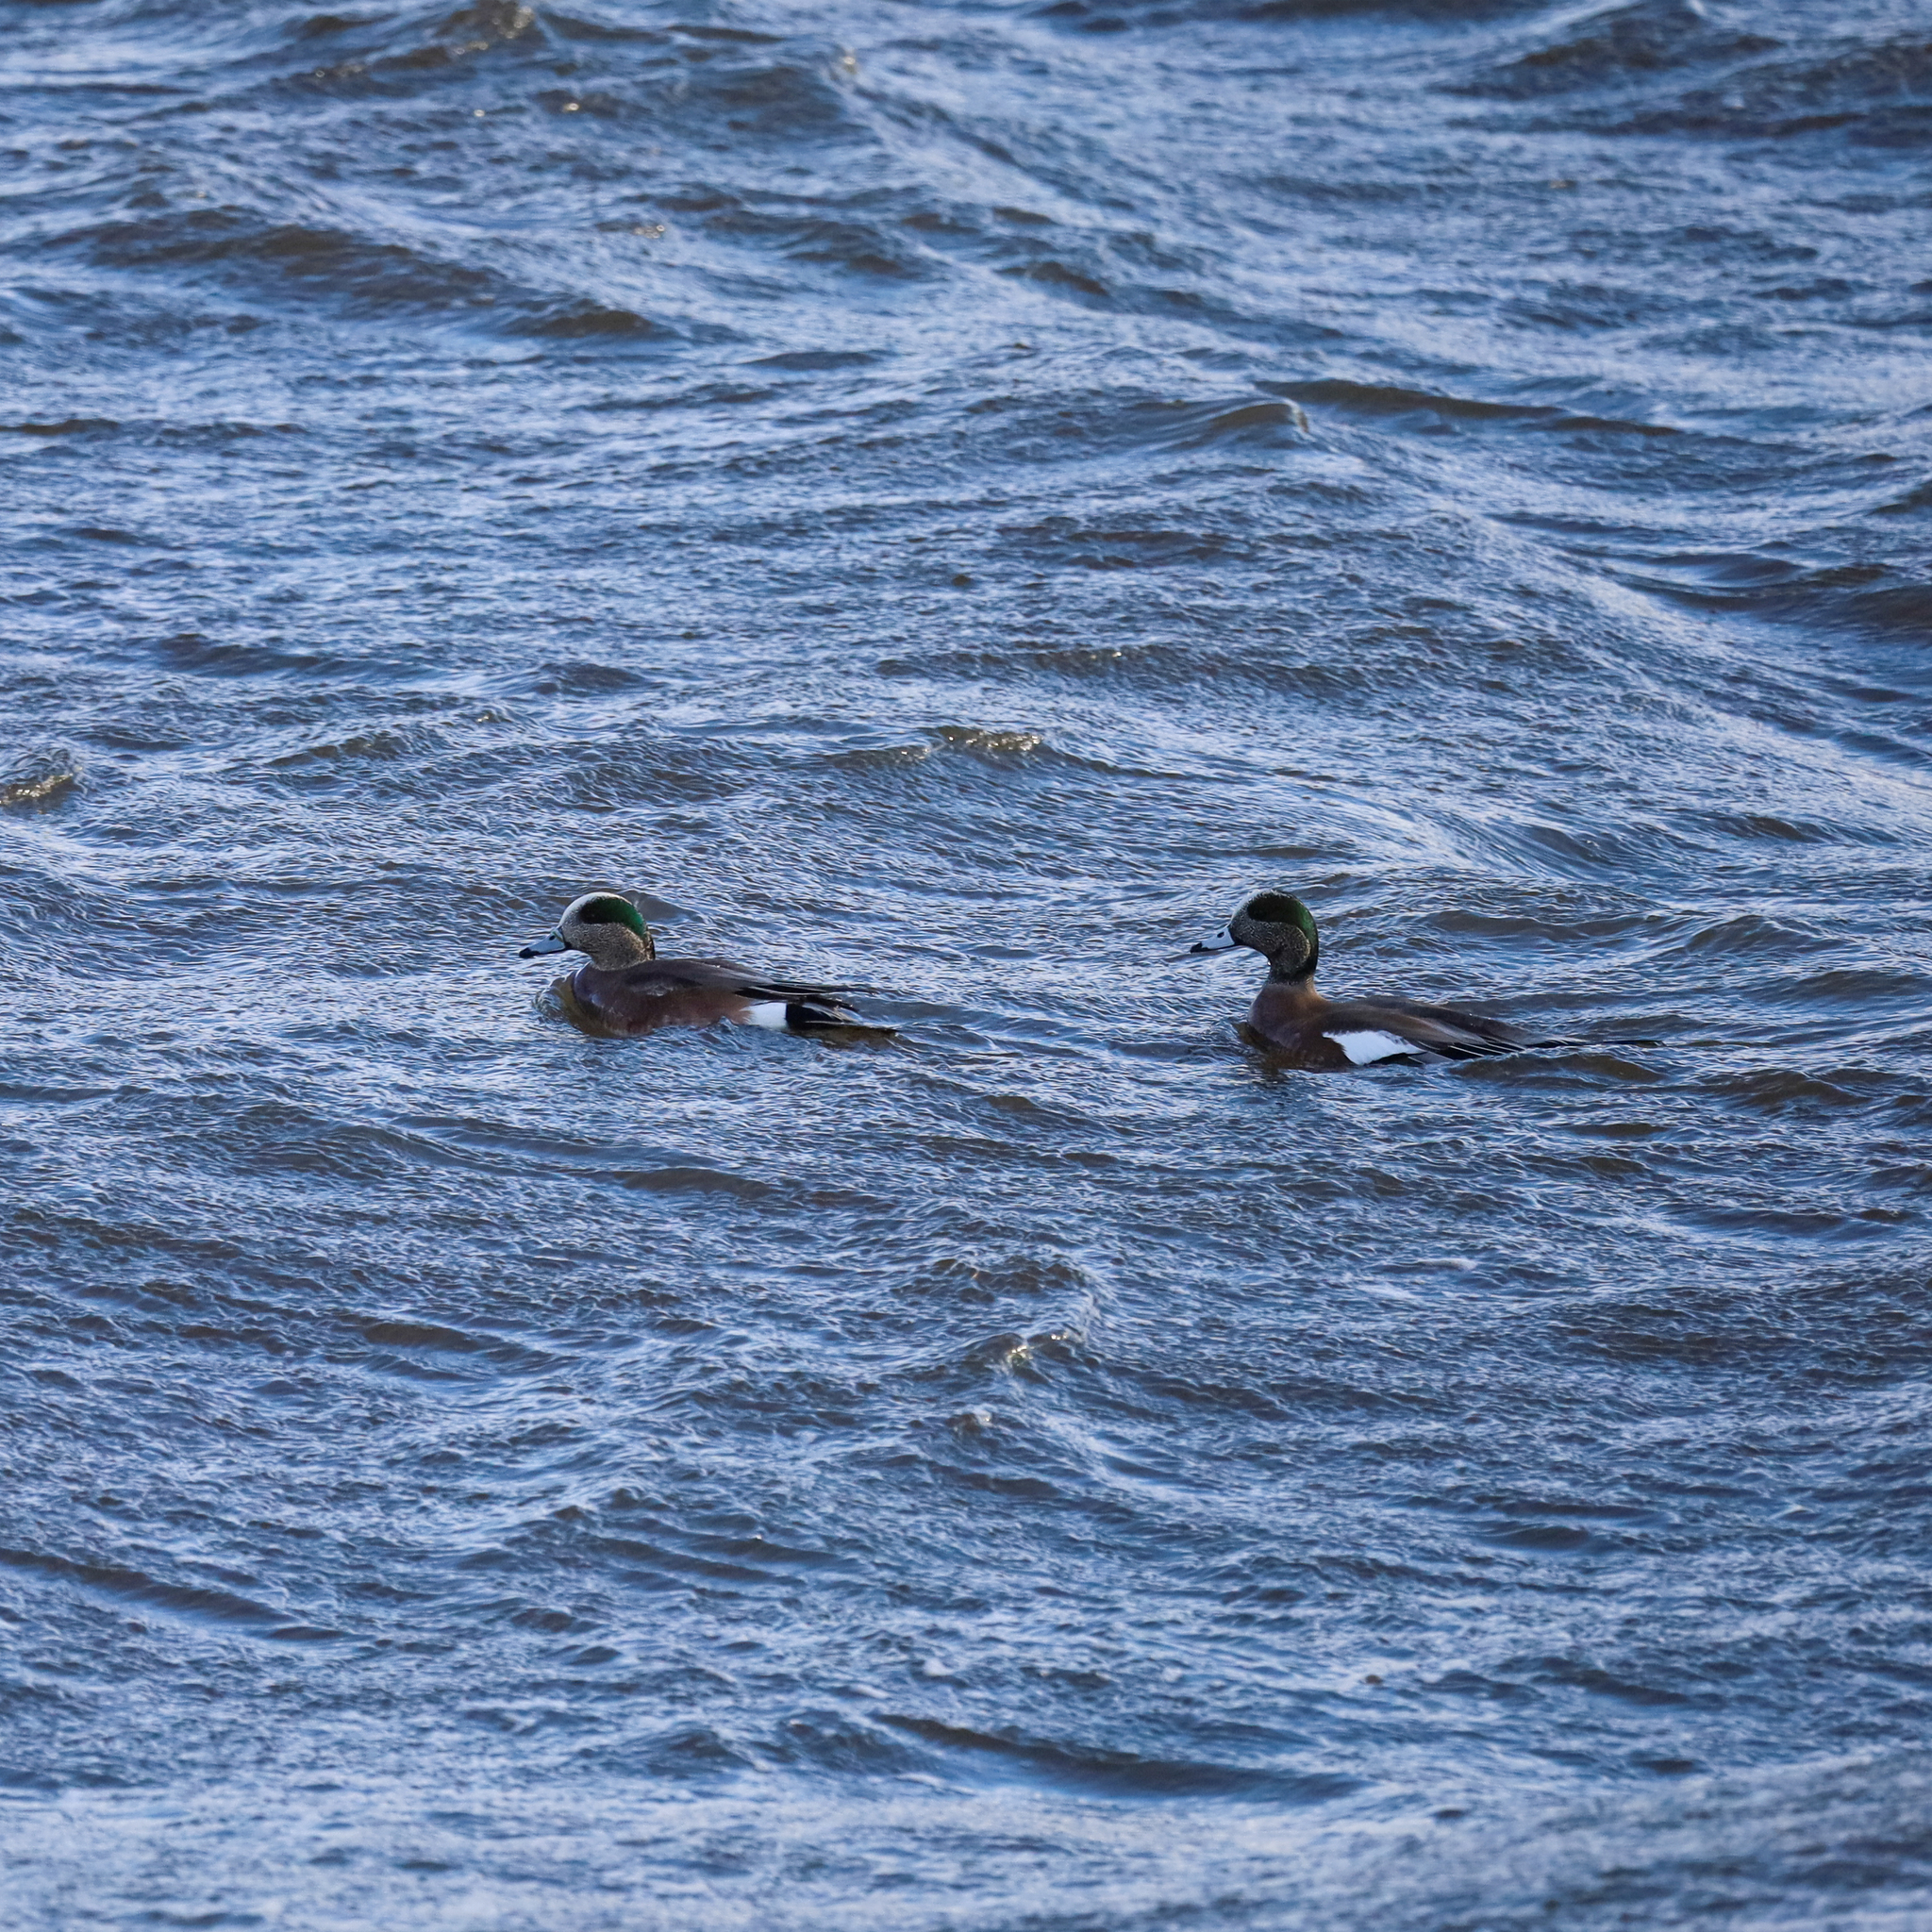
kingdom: Animalia
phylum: Chordata
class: Aves
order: Anseriformes
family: Anatidae
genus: Mareca
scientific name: Mareca americana
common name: American wigeon
